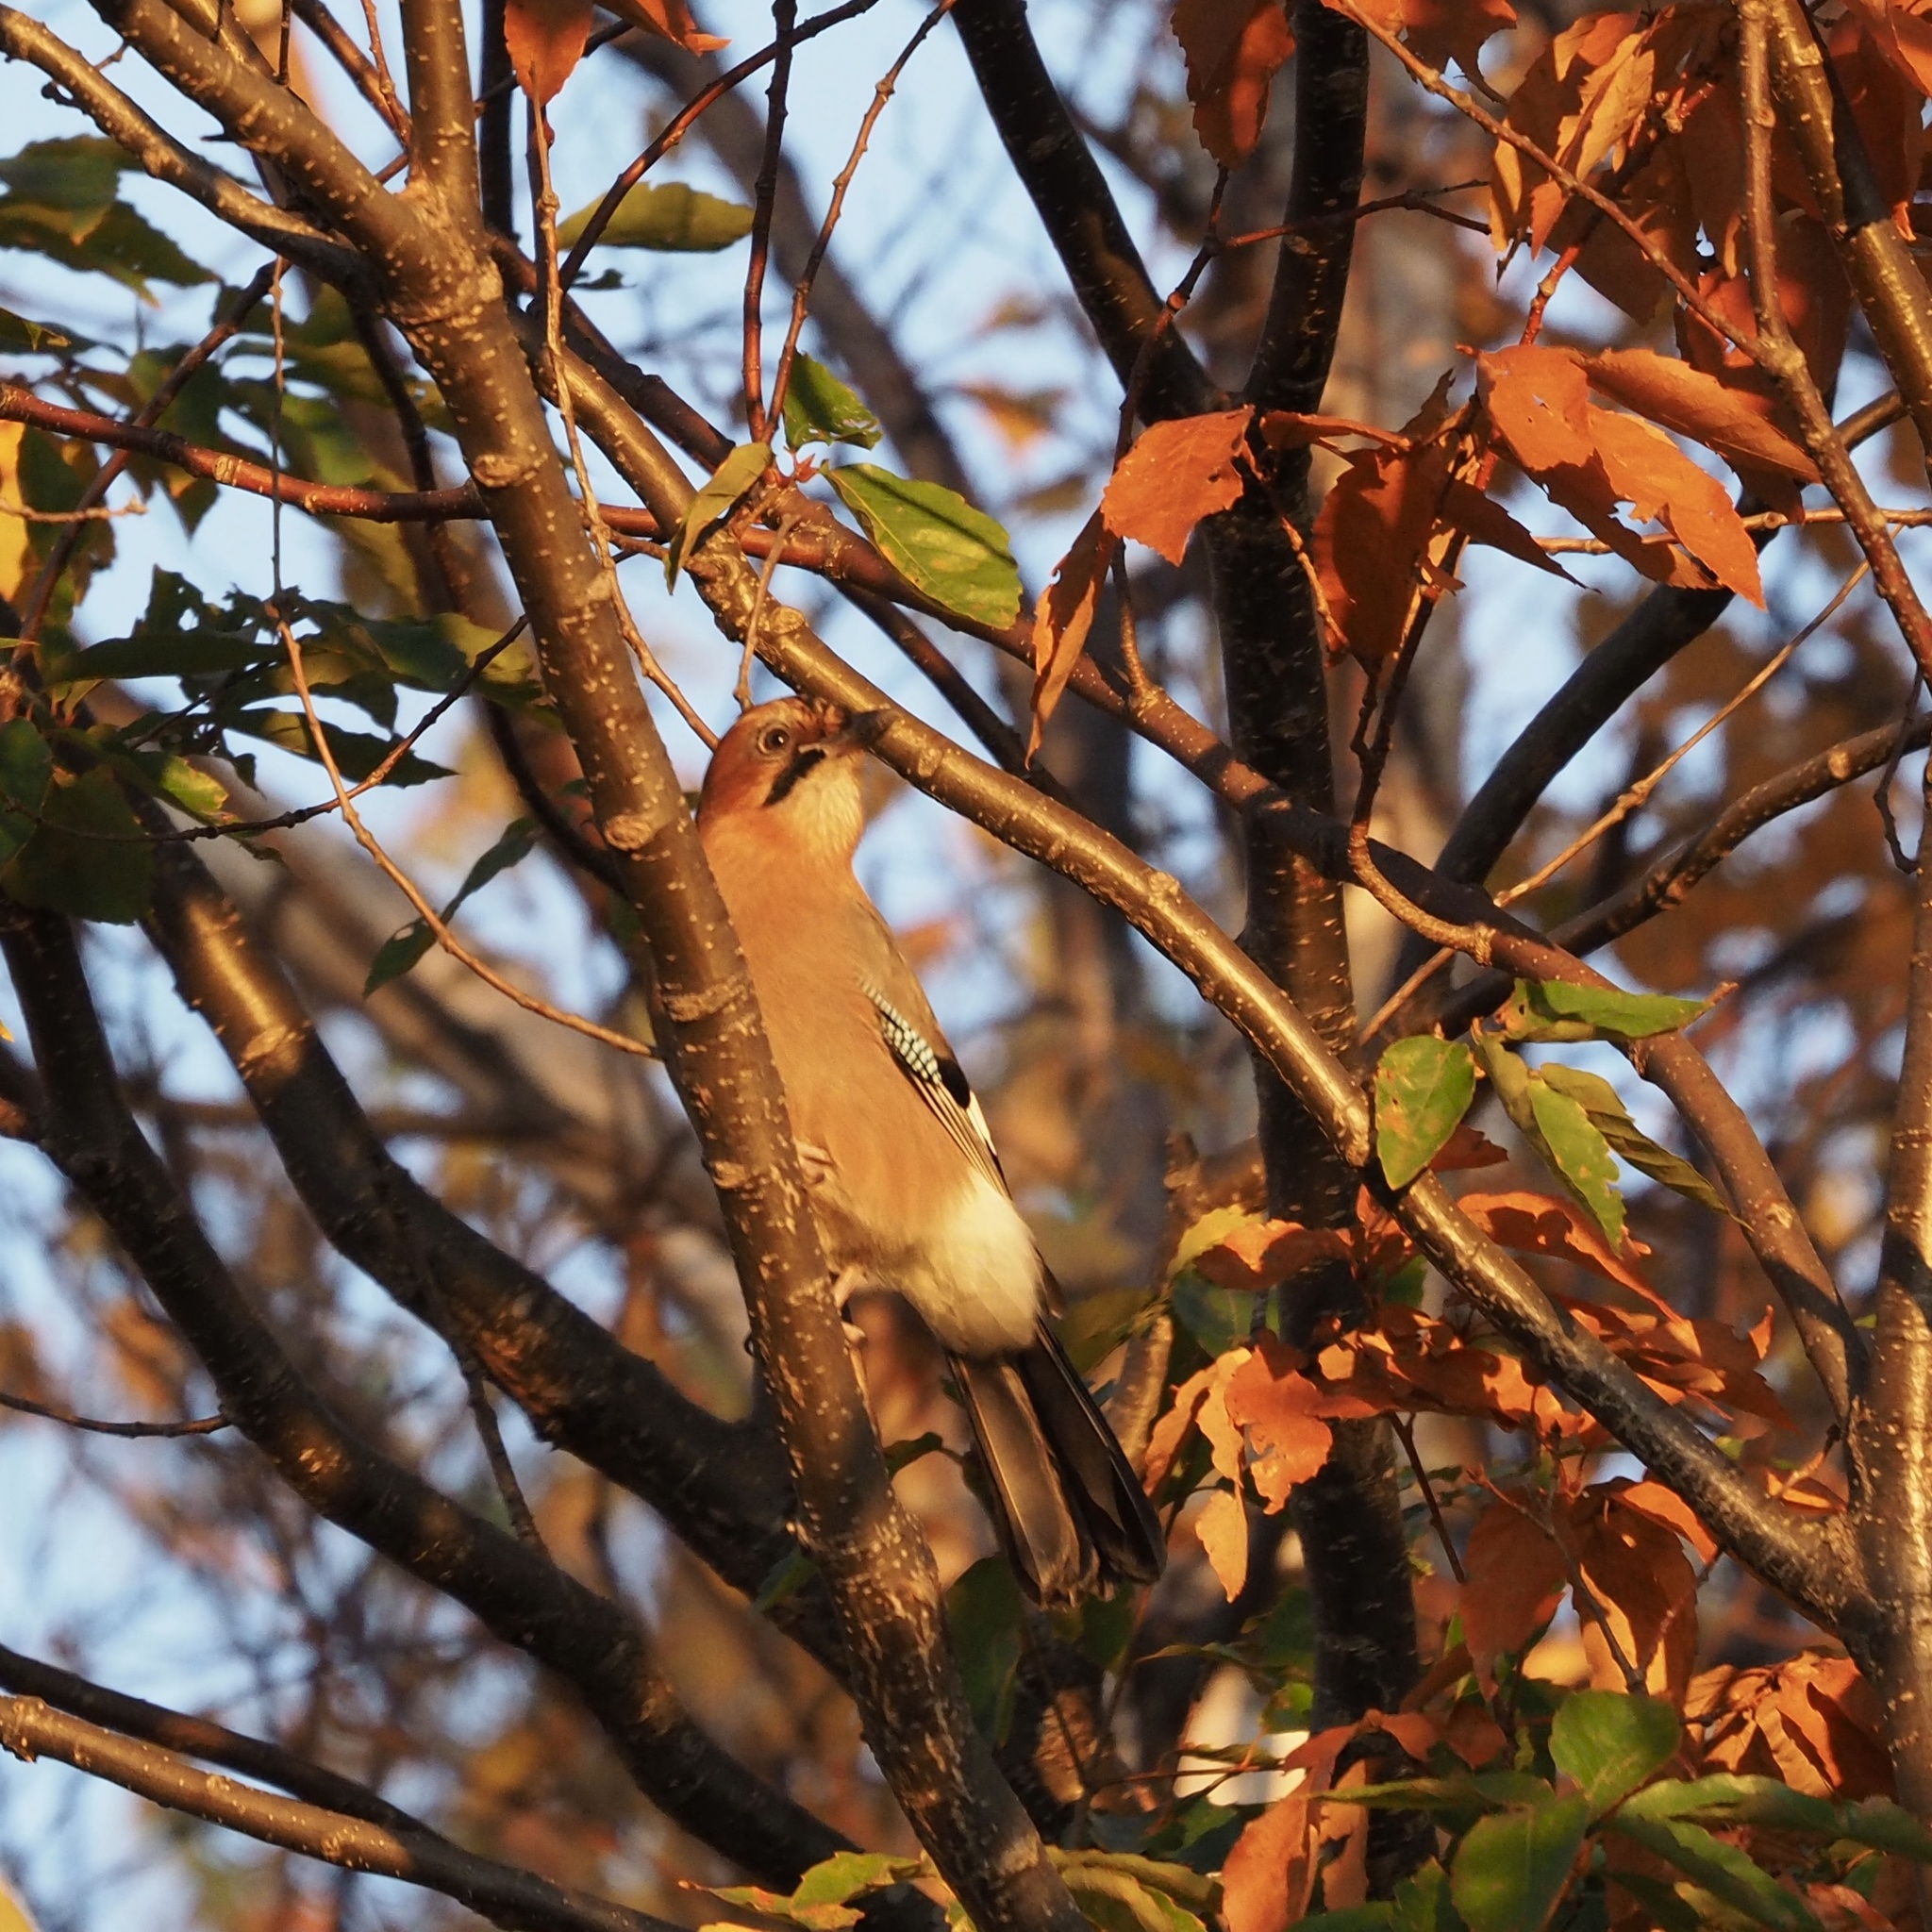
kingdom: Animalia
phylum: Chordata
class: Aves
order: Passeriformes
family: Corvidae
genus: Garrulus
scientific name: Garrulus glandarius
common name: Eurasian jay
